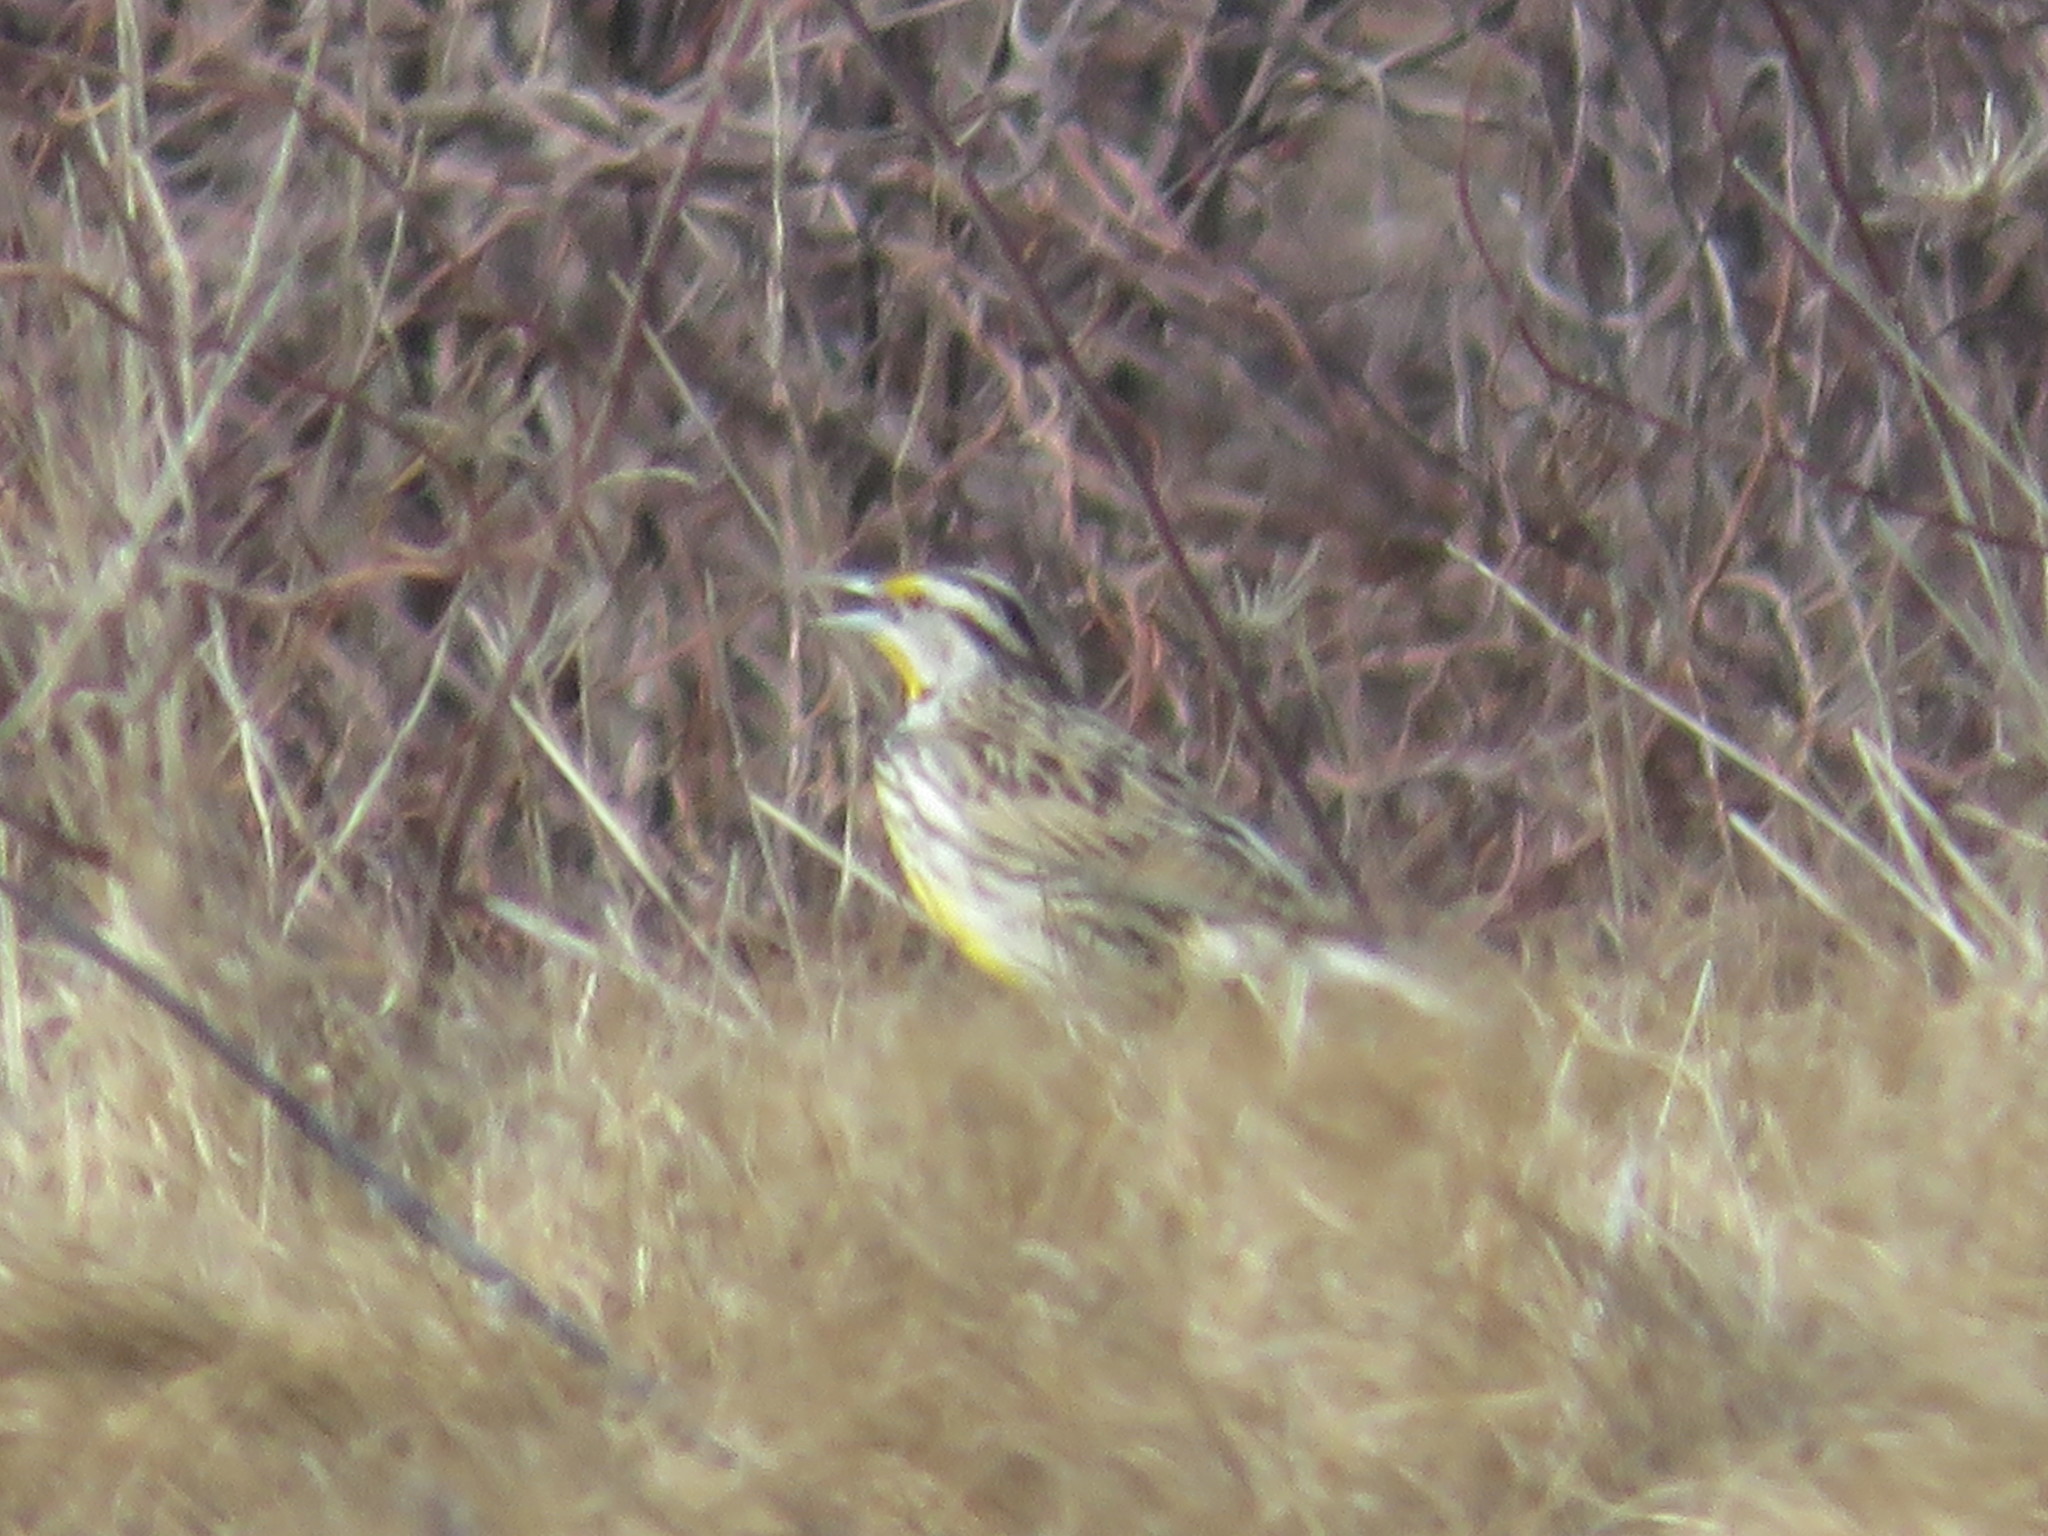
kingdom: Animalia
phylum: Chordata
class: Aves
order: Passeriformes
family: Icteridae
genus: Sturnella
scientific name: Sturnella magna
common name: Eastern meadowlark
